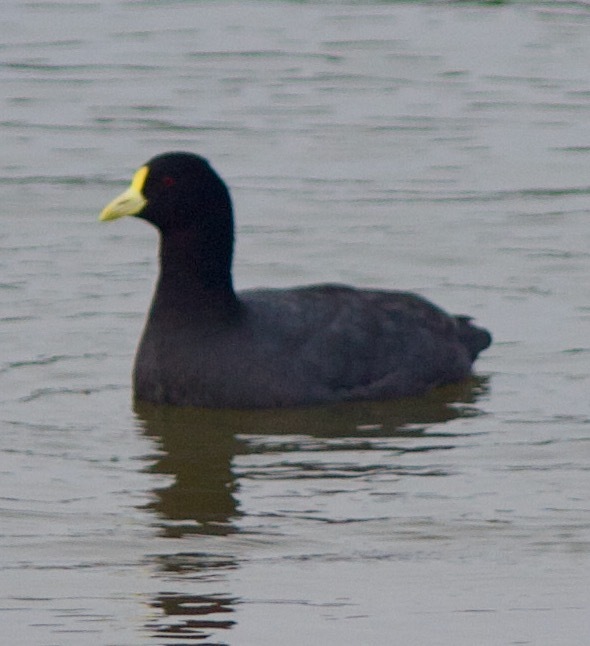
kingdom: Animalia
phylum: Chordata
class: Aves
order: Gruiformes
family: Rallidae
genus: Fulica
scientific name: Fulica leucoptera
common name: White-winged coot
